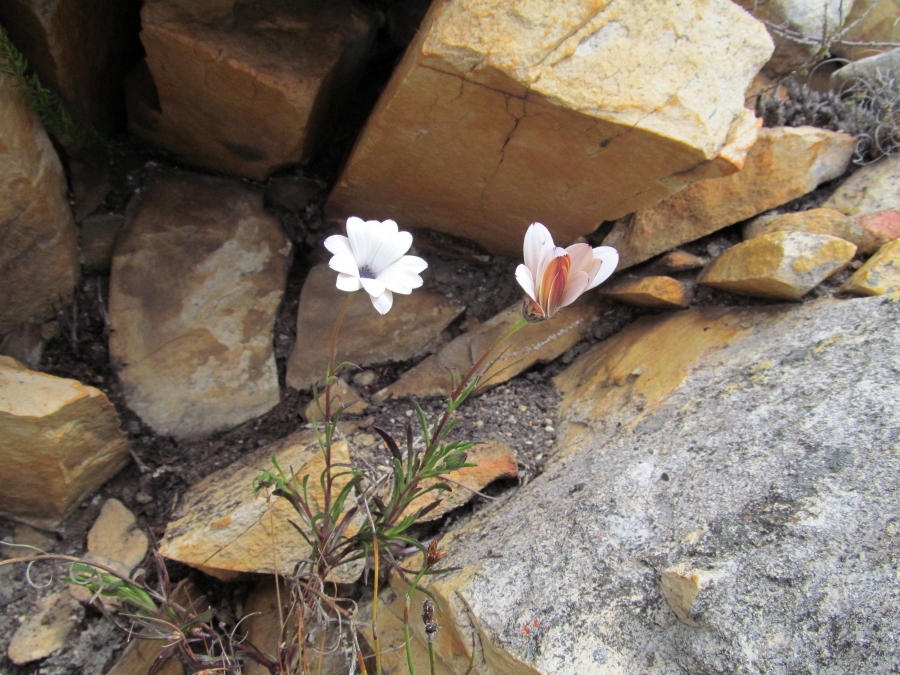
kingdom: Plantae
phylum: Tracheophyta
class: Magnoliopsida
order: Asterales
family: Asteraceae
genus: Dimorphotheca
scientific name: Dimorphotheca montana
